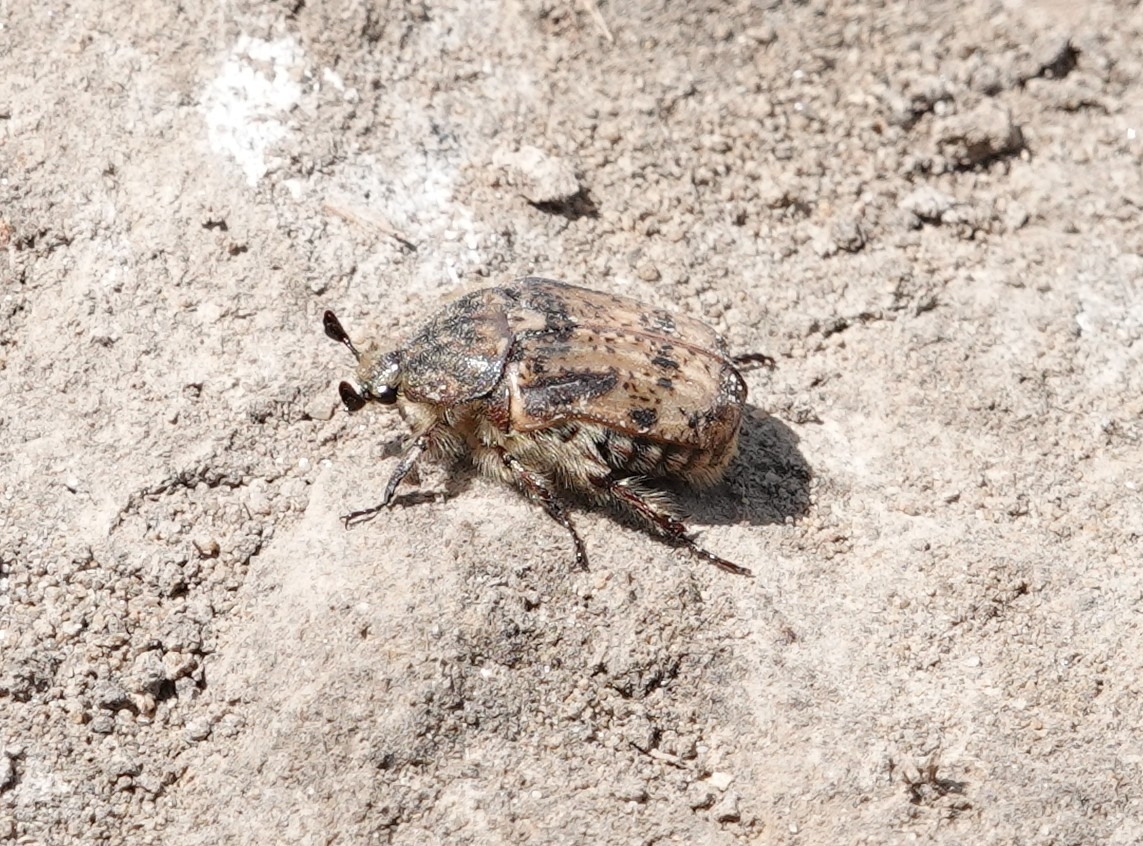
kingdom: Animalia
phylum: Arthropoda
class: Insecta
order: Coleoptera
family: Scarabaeidae
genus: Euphoria
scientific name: Euphoria inda
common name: Bumble flower beetle
